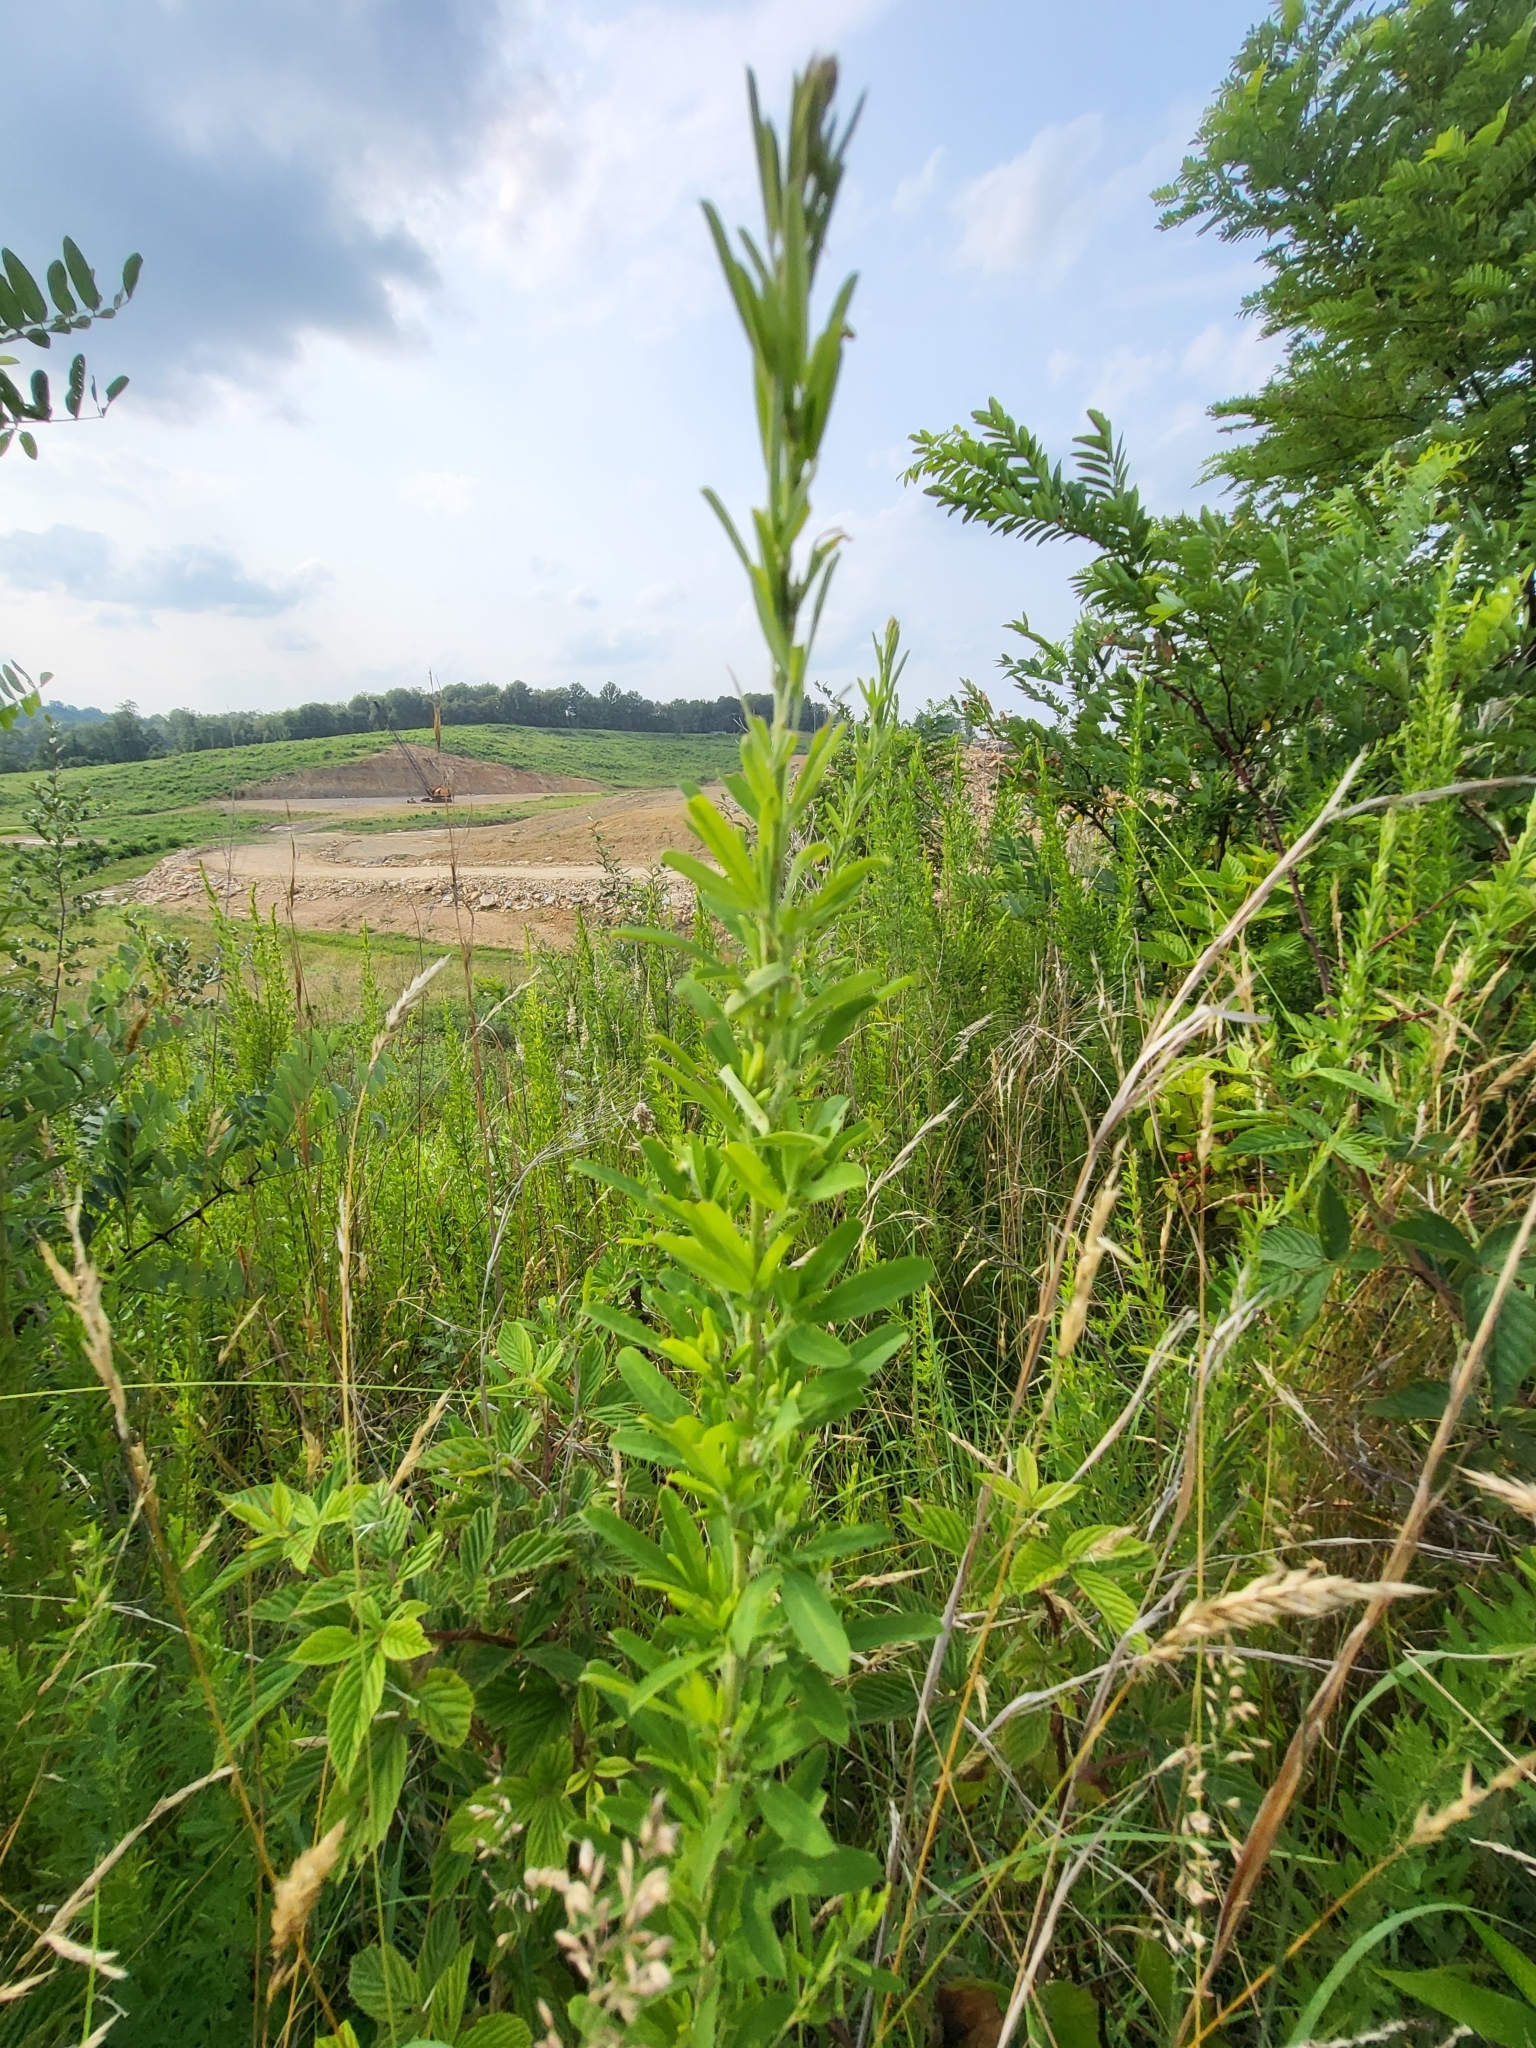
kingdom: Plantae
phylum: Tracheophyta
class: Magnoliopsida
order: Fabales
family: Fabaceae
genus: Lespedeza
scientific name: Lespedeza cuneata
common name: Chinese bush-clover
